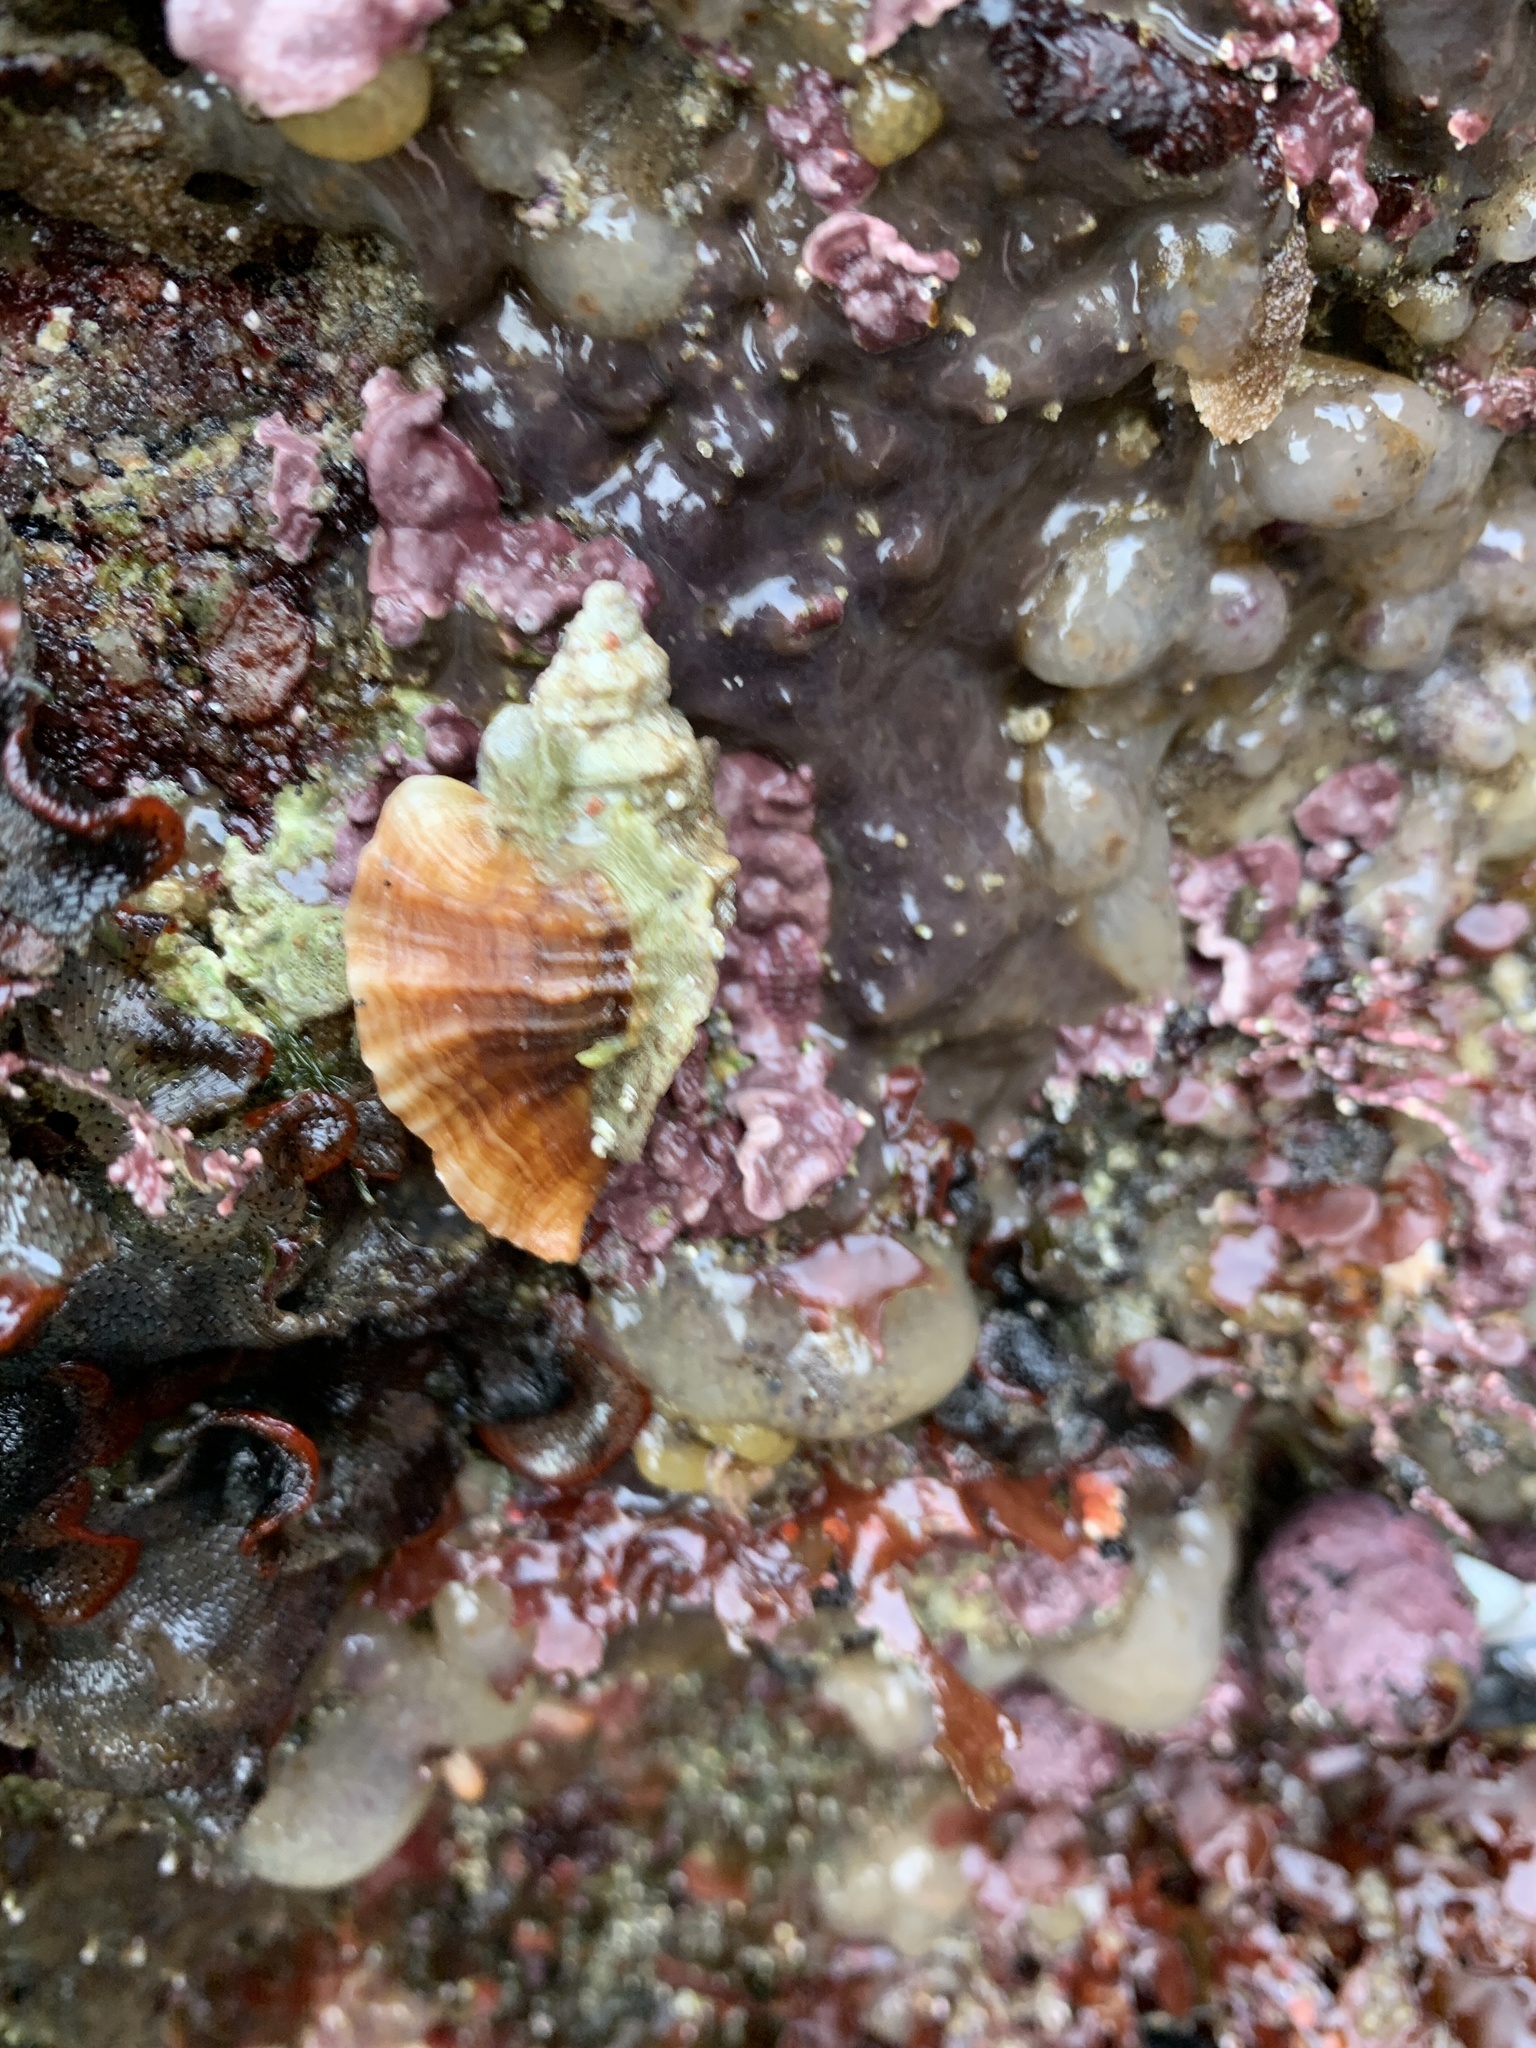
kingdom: Animalia
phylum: Mollusca
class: Gastropoda
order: Neogastropoda
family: Muricidae
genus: Ceratostoma
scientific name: Ceratostoma foliatum
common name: Foliate thorn purpura
